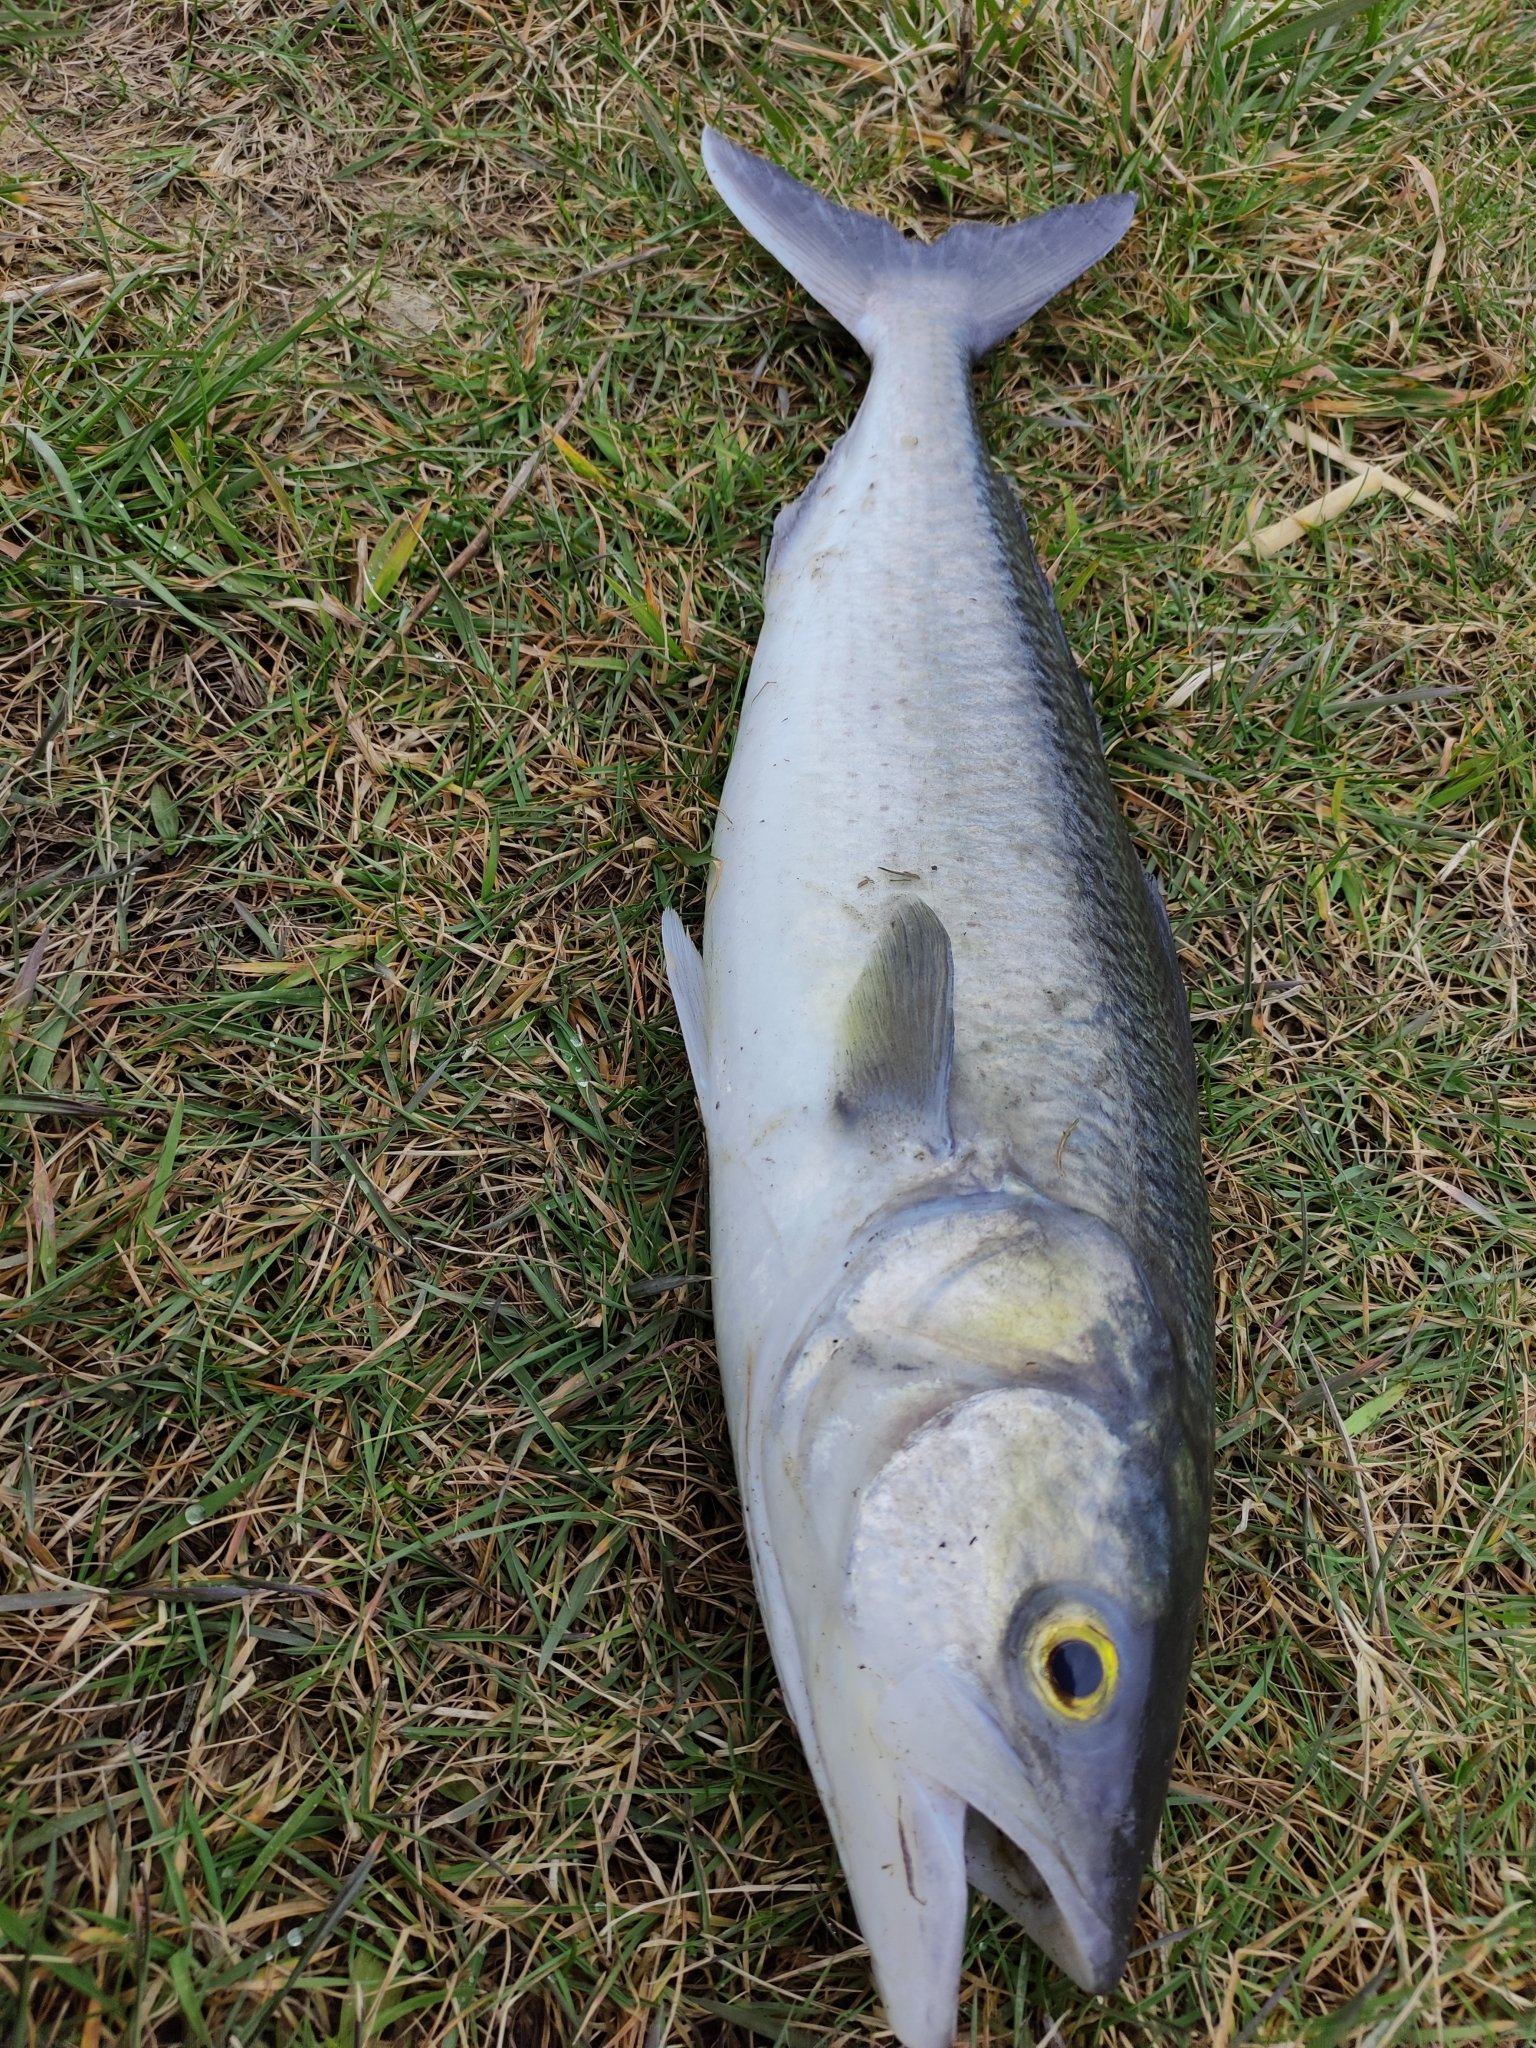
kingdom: Animalia
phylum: Chordata
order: Perciformes
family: Arripidae
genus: Arripis
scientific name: Arripis trutta
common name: Kahawai
